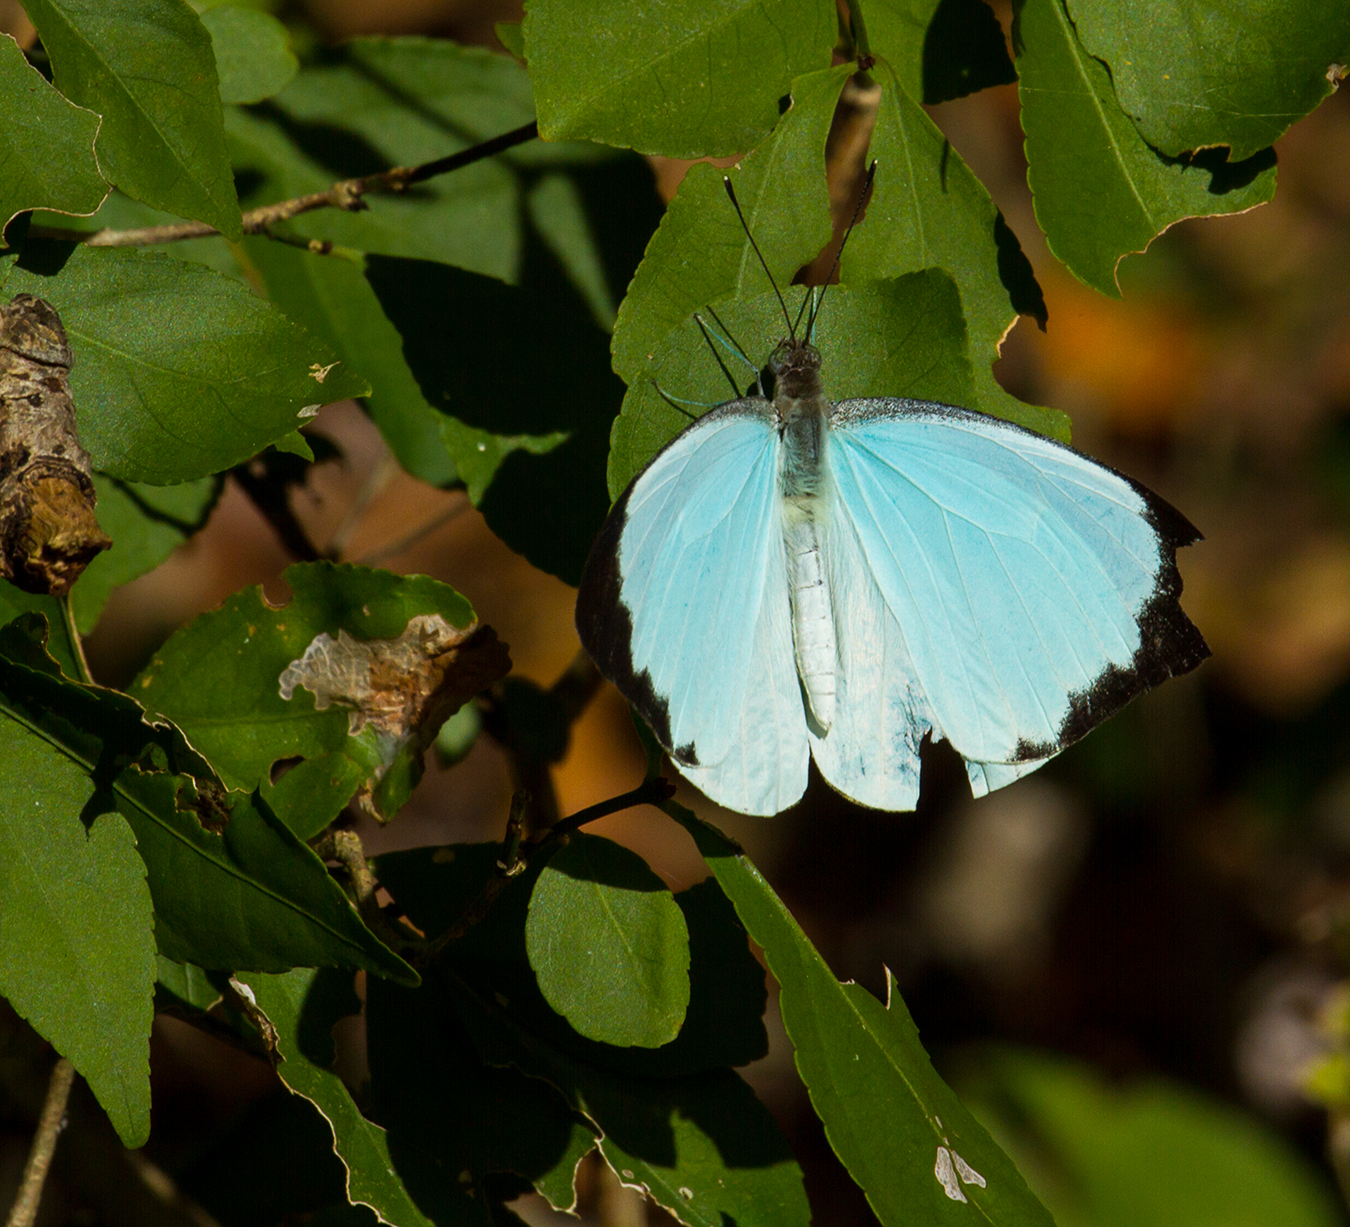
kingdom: Animalia
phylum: Arthropoda
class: Insecta
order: Lepidoptera
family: Pieridae
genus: Nepheronia
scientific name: Nepheronia thalassina
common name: Cambridge vagrant
